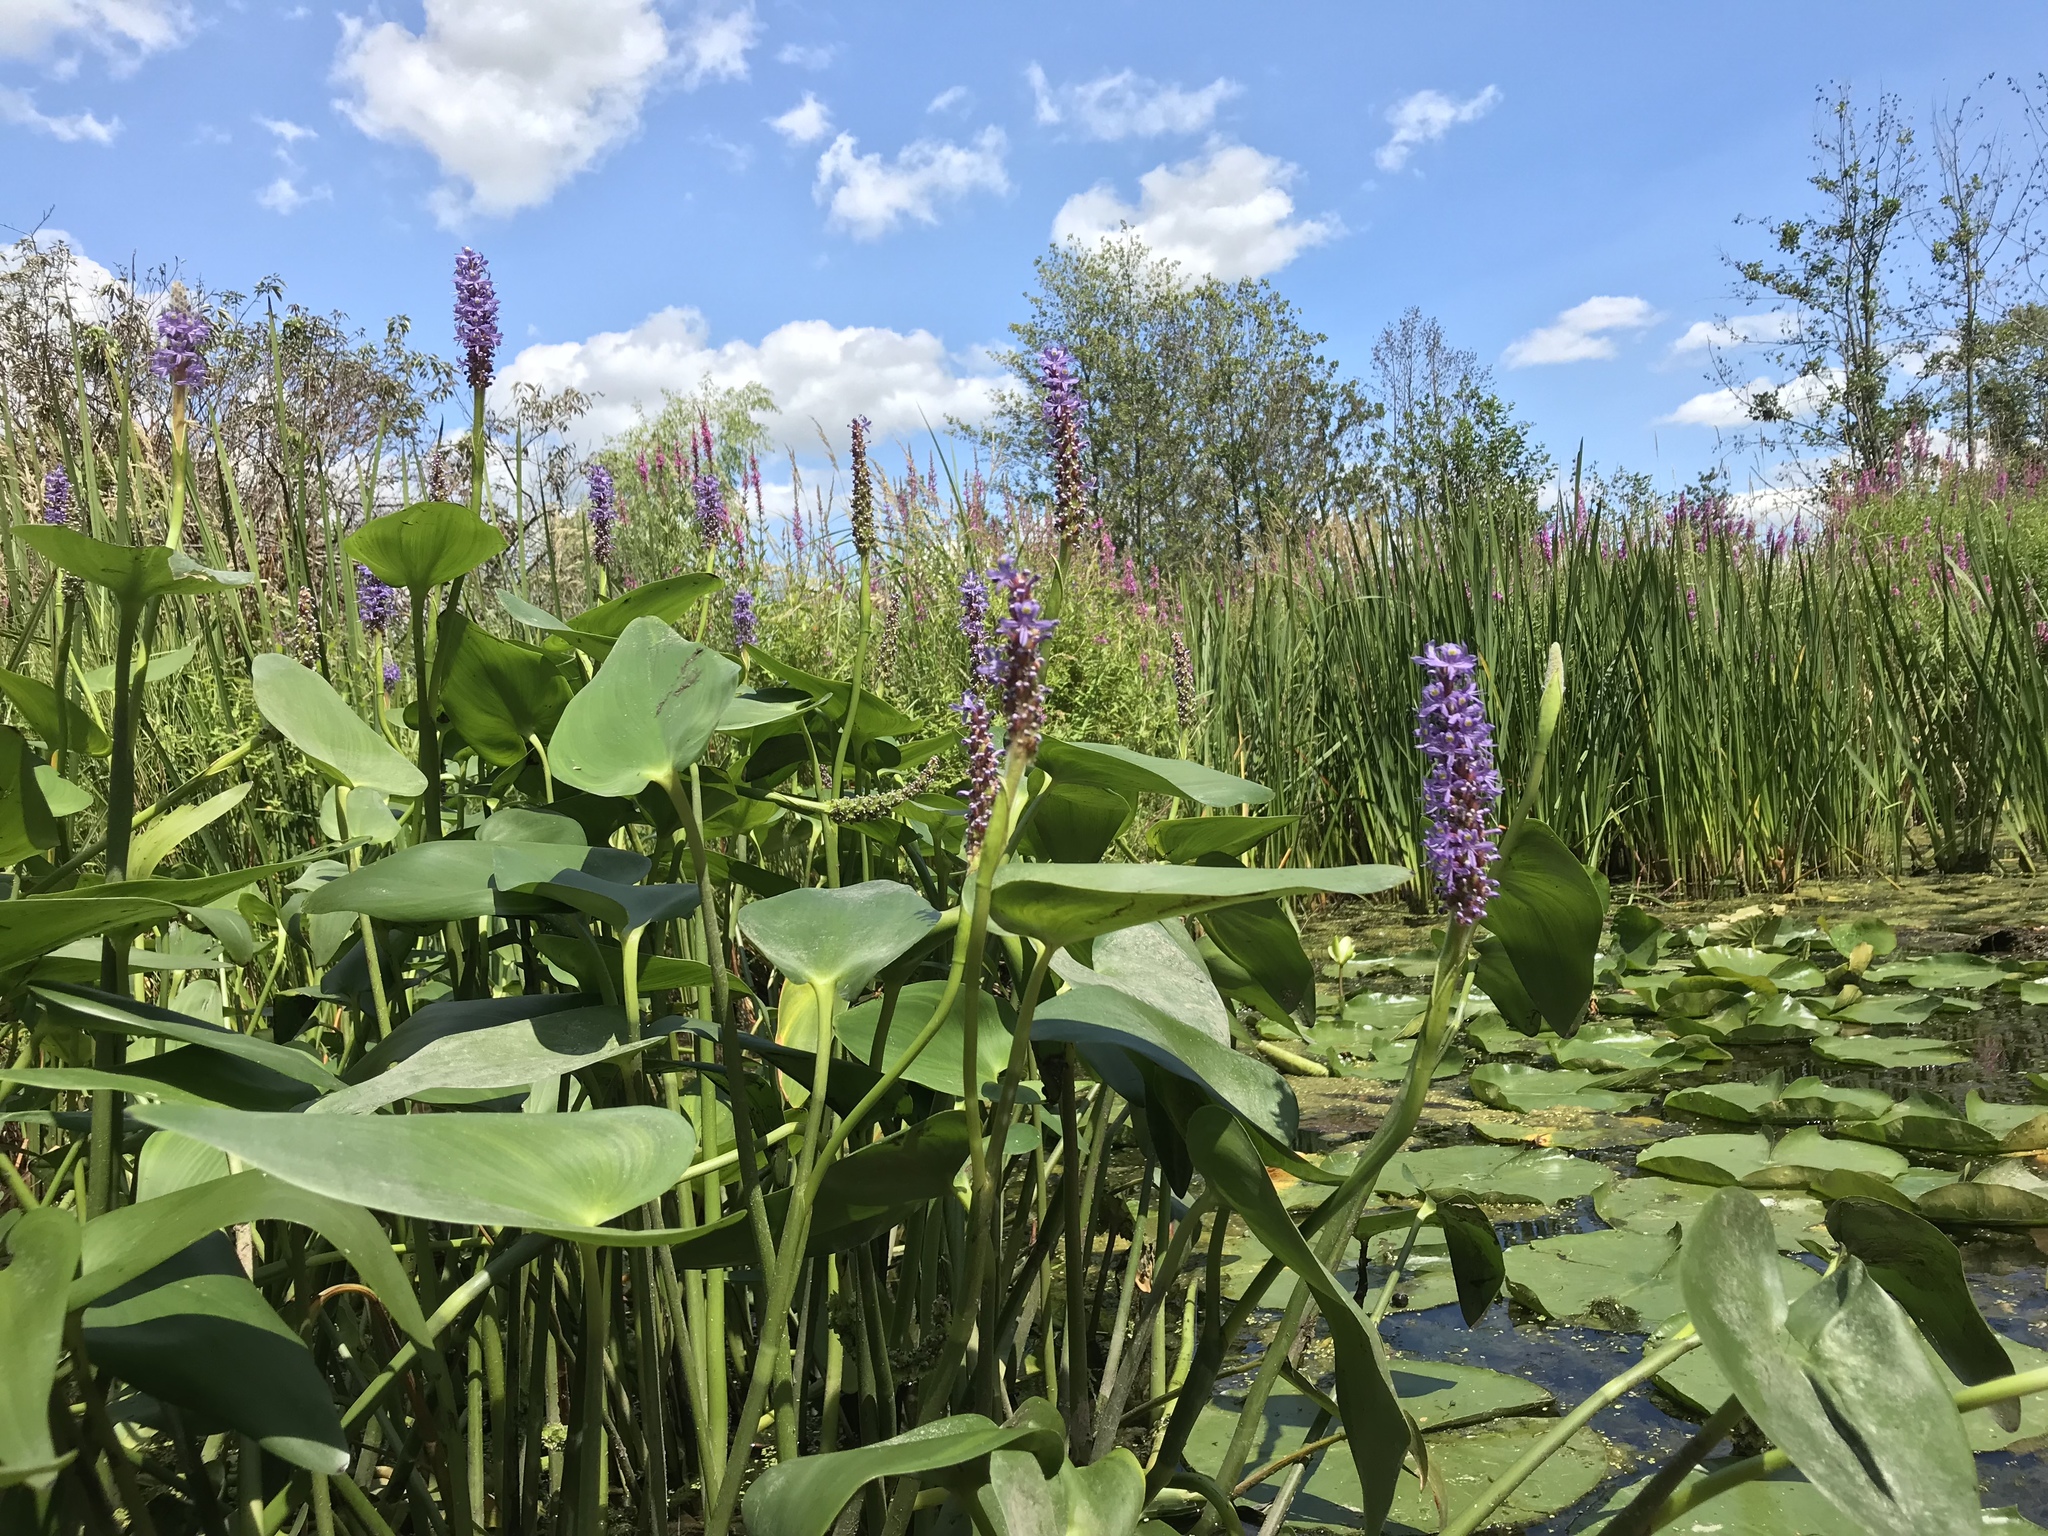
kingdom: Plantae
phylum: Tracheophyta
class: Liliopsida
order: Commelinales
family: Pontederiaceae
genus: Pontederia
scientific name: Pontederia cordata
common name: Pickerelweed
